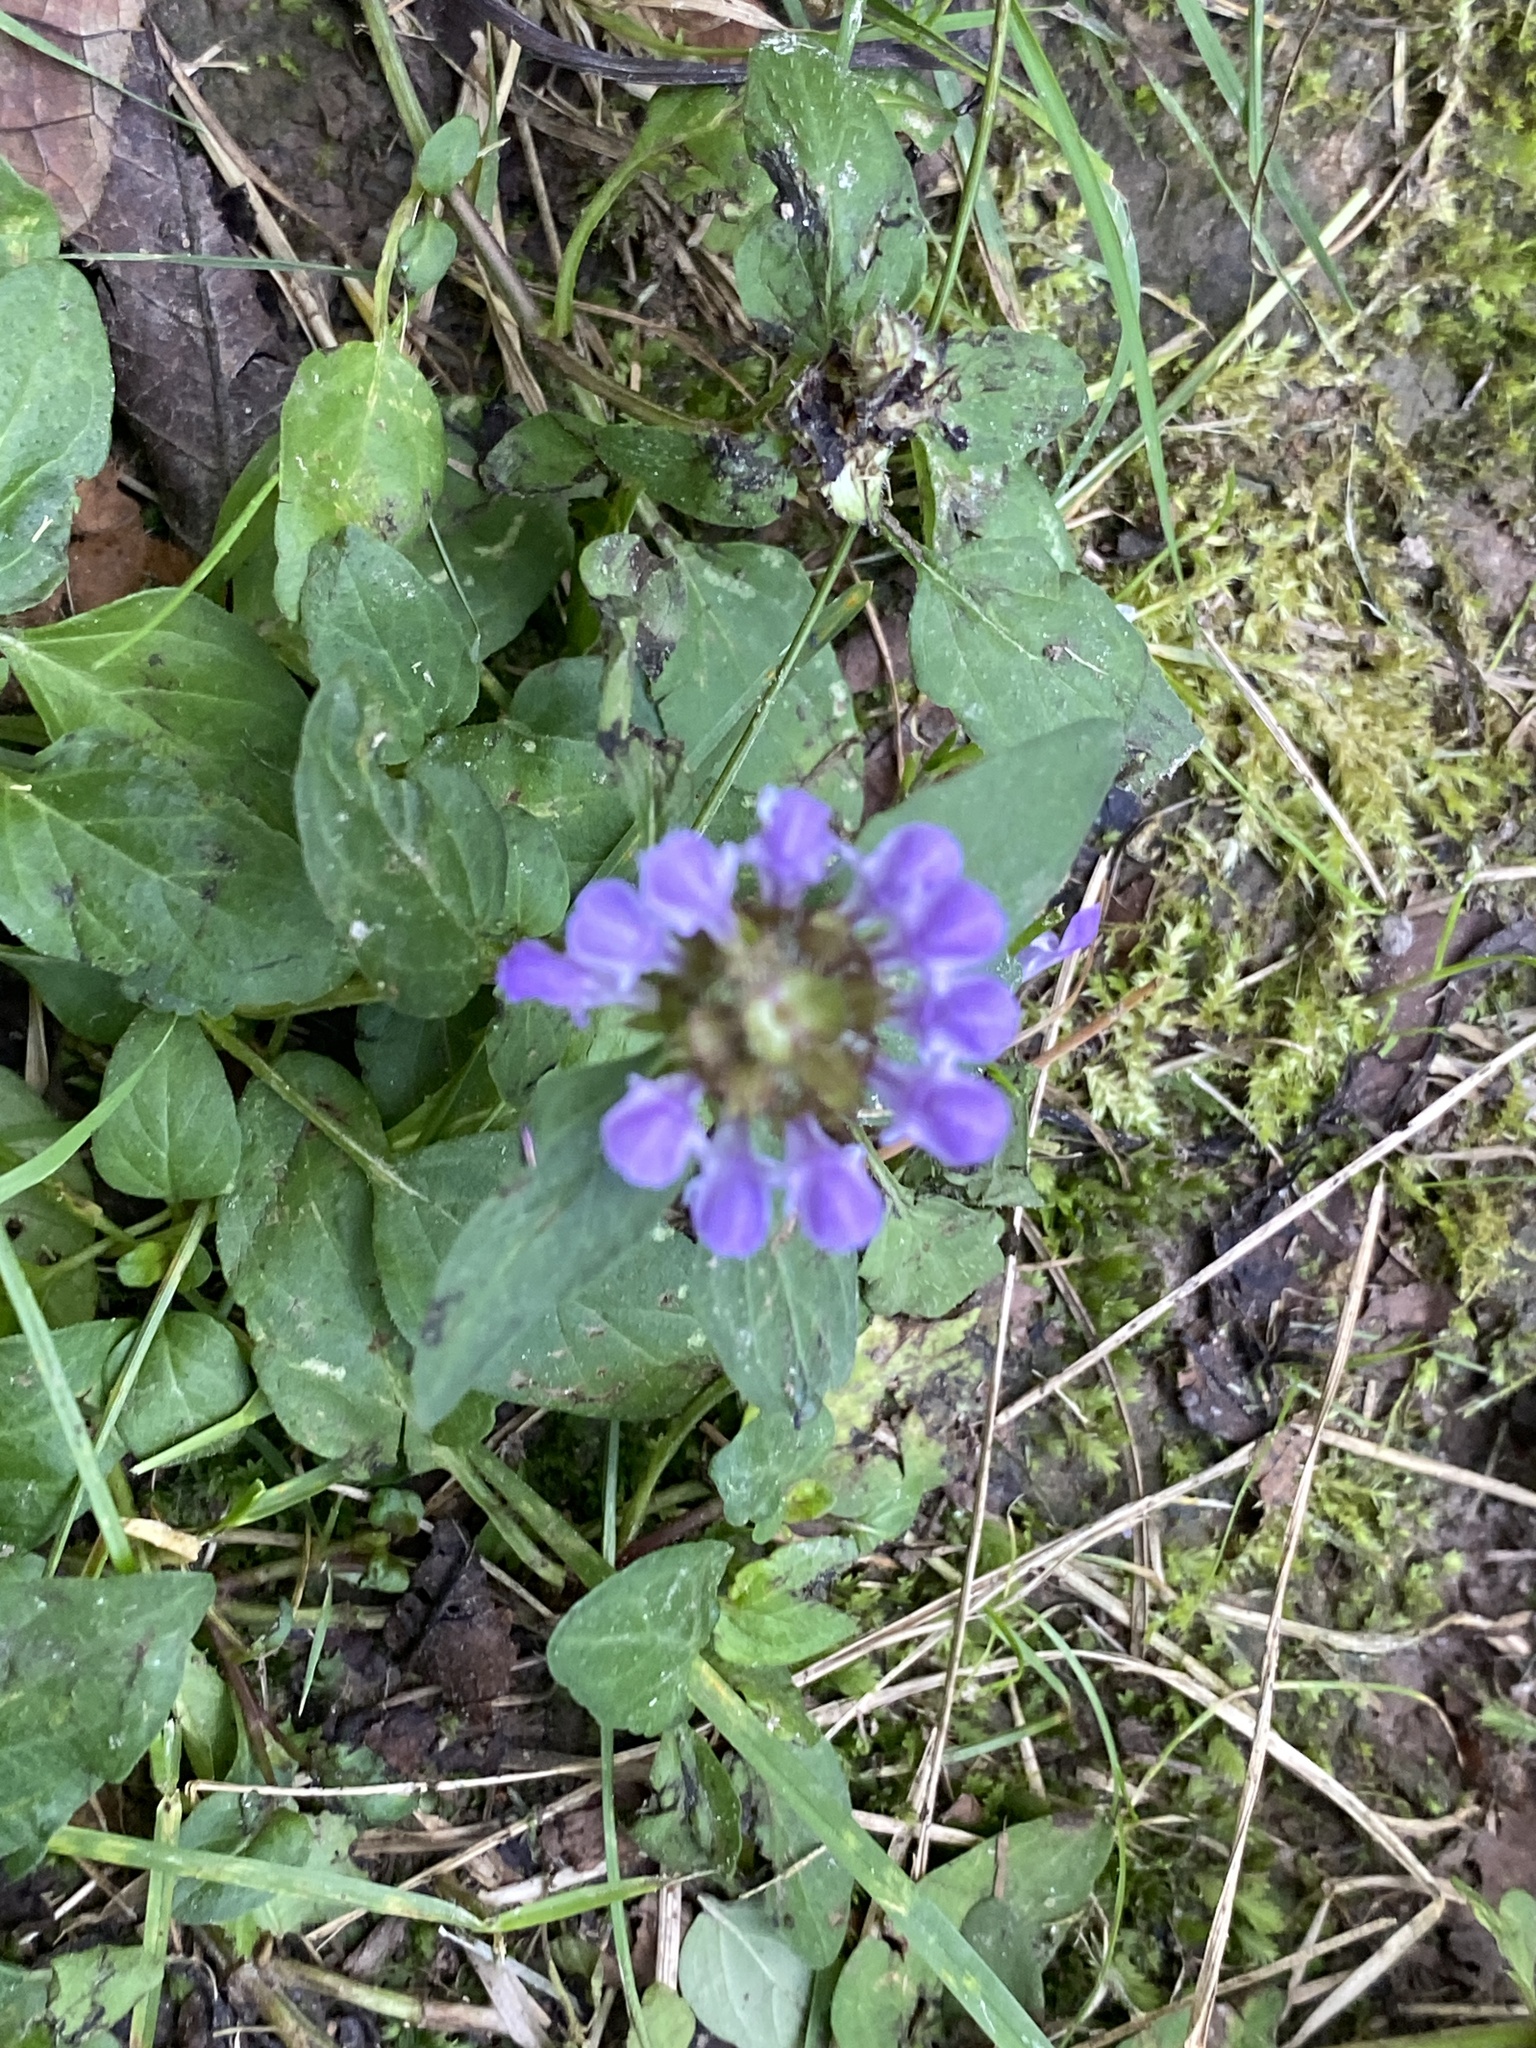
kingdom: Plantae
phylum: Tracheophyta
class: Magnoliopsida
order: Lamiales
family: Lamiaceae
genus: Prunella
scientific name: Prunella vulgaris
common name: Heal-all
